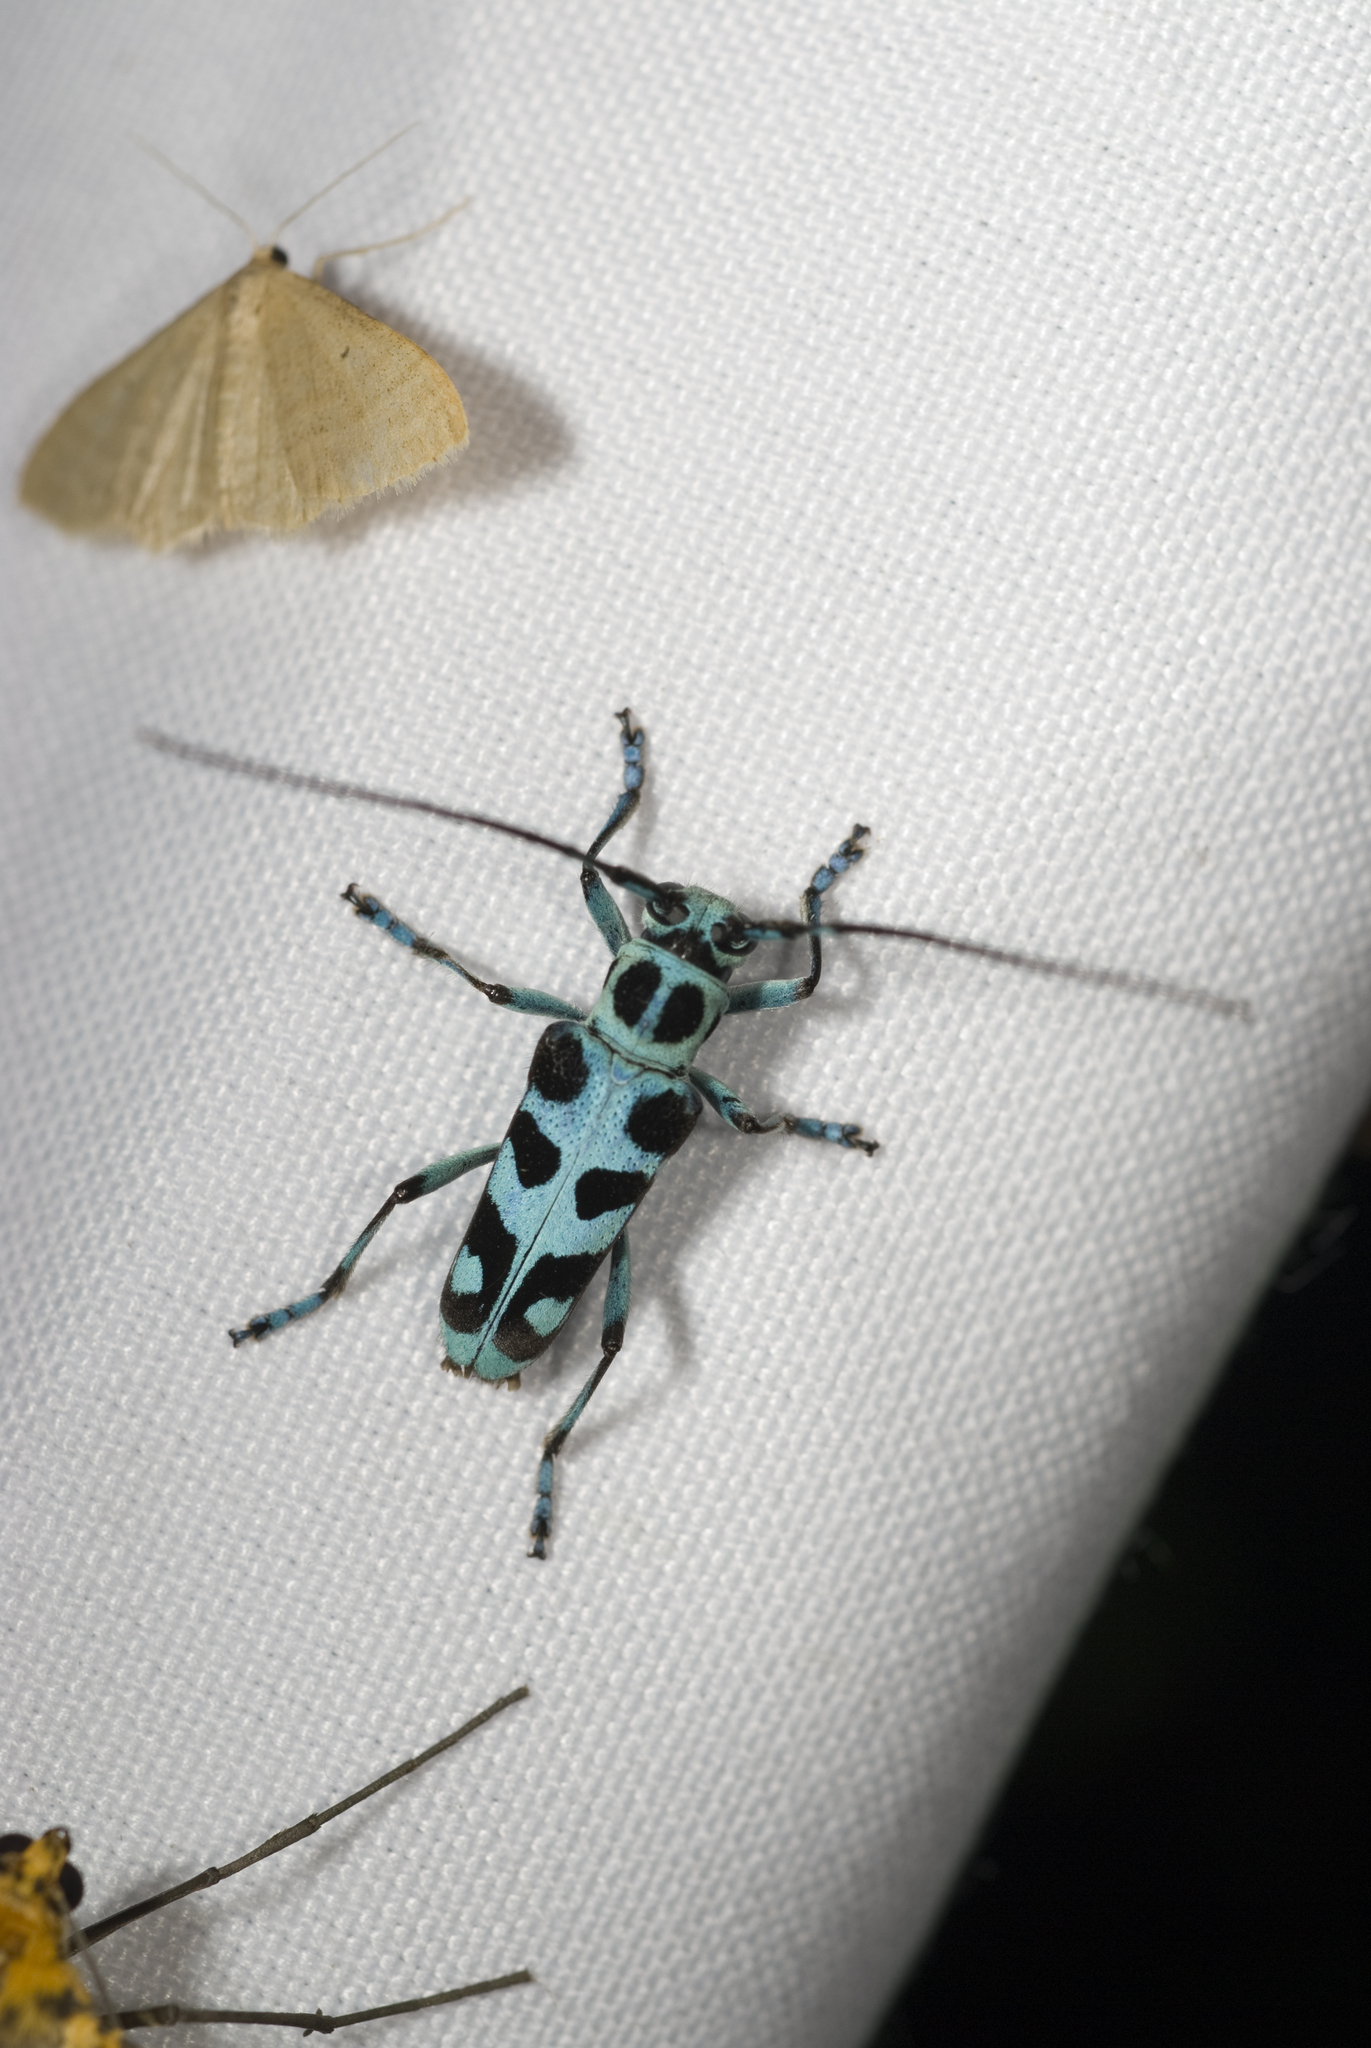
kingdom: Animalia
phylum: Arthropoda
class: Insecta
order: Coleoptera
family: Cerambycidae
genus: Paraglenea
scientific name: Paraglenea swinhoei
